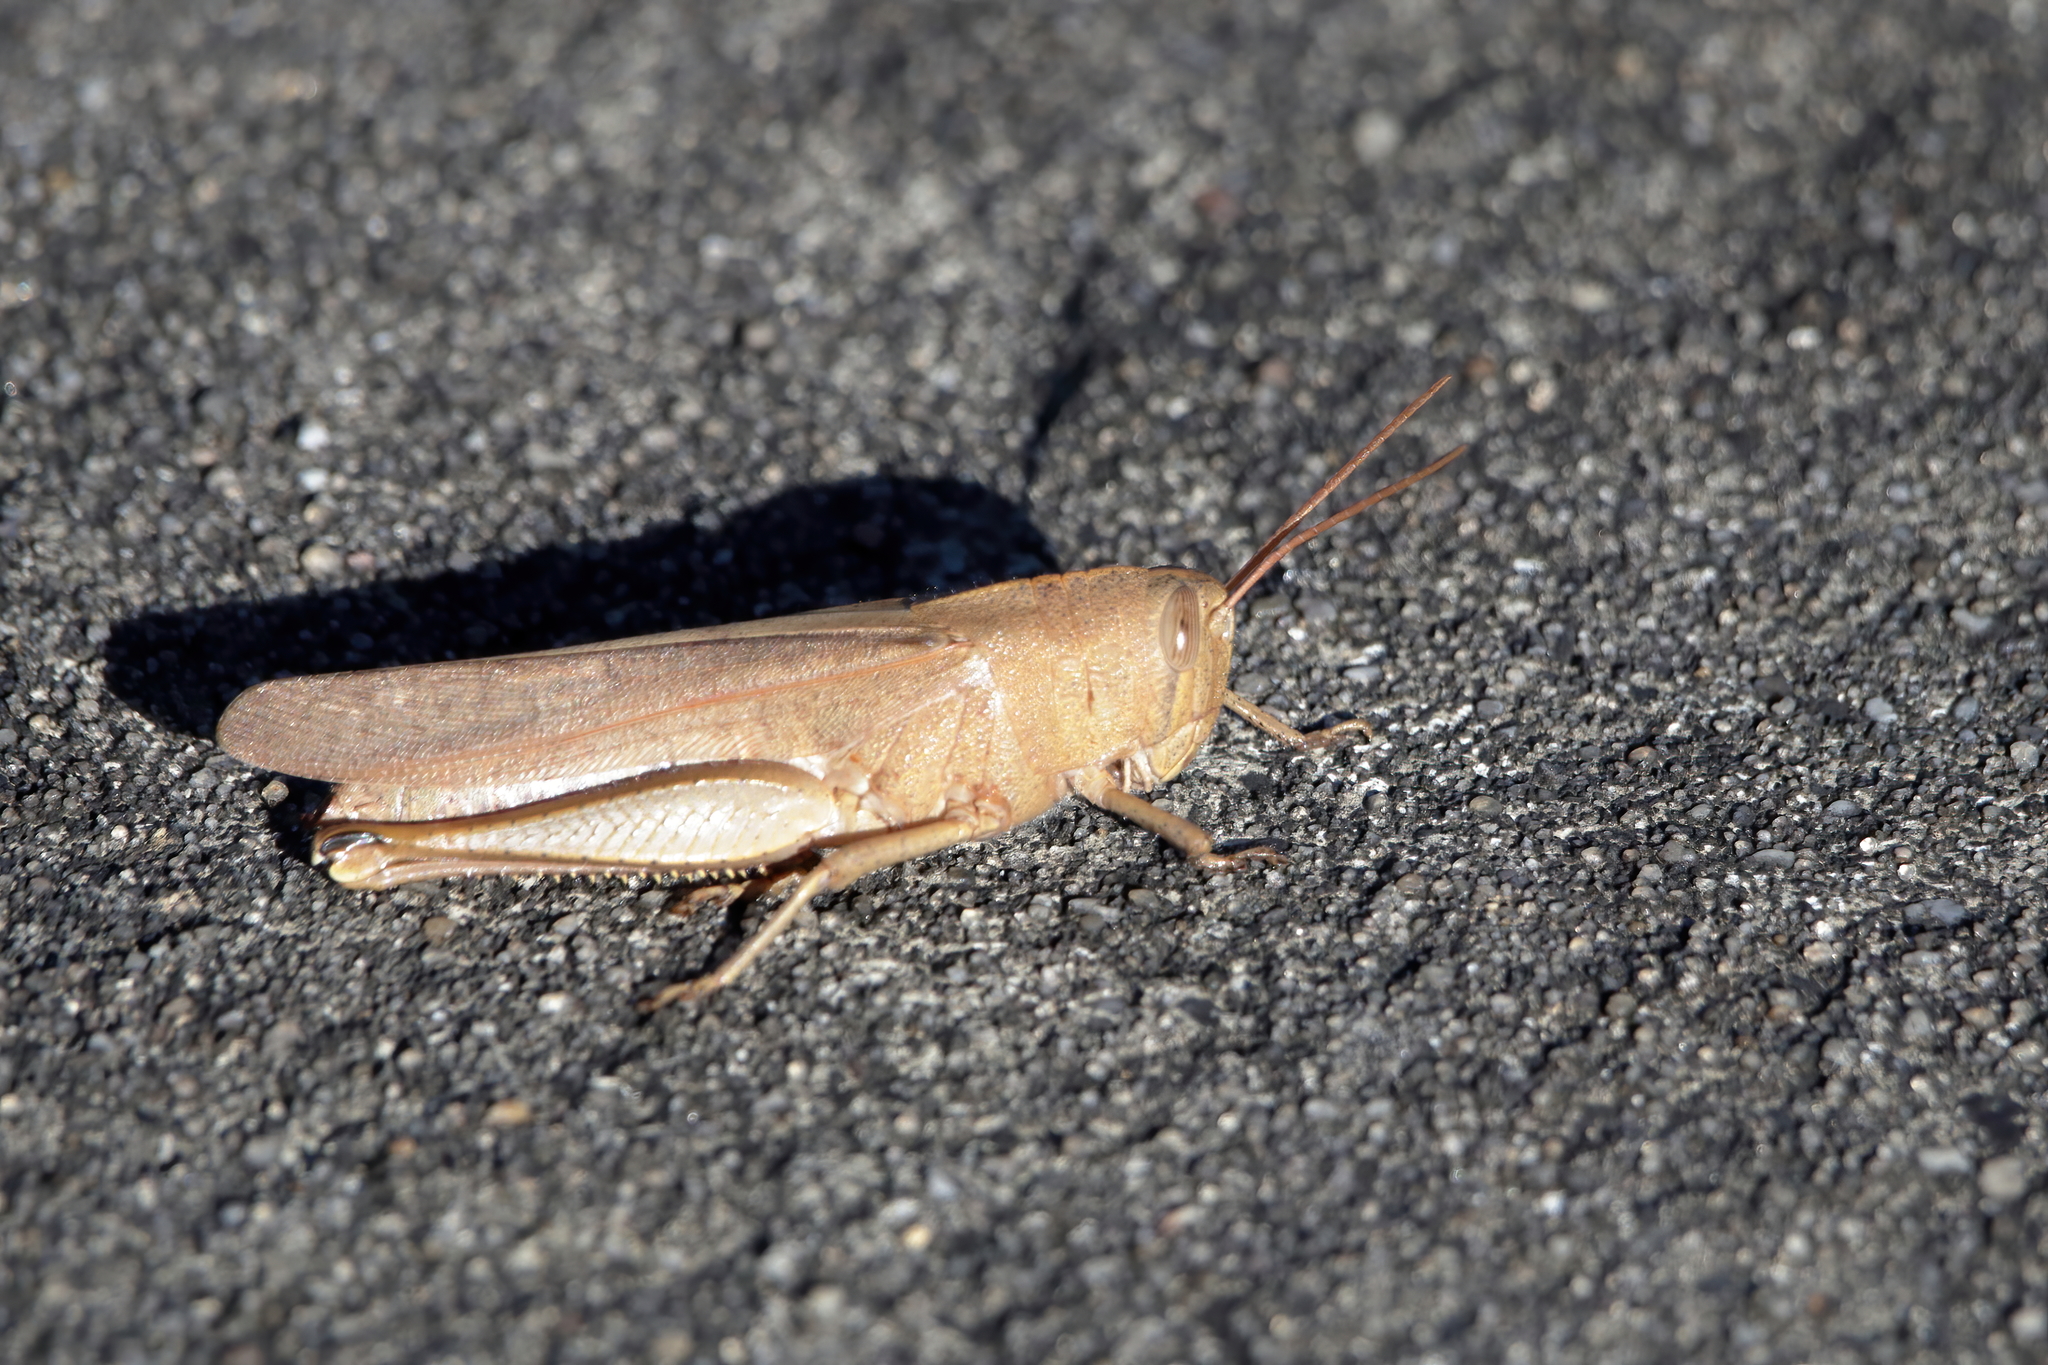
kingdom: Animalia
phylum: Arthropoda
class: Insecta
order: Orthoptera
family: Acrididae
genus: Schistocerca
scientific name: Schistocerca damnifica
